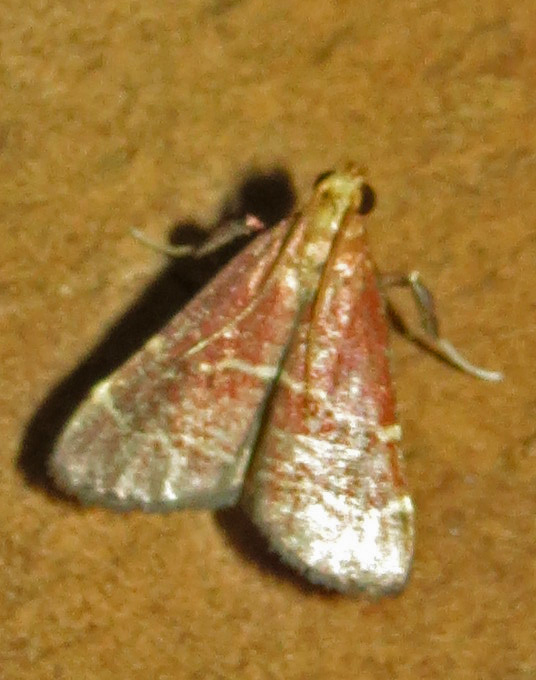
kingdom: Animalia
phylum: Arthropoda
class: Insecta
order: Lepidoptera
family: Pyralidae
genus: Arta
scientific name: Arta statalis
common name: Posturing arta moth
